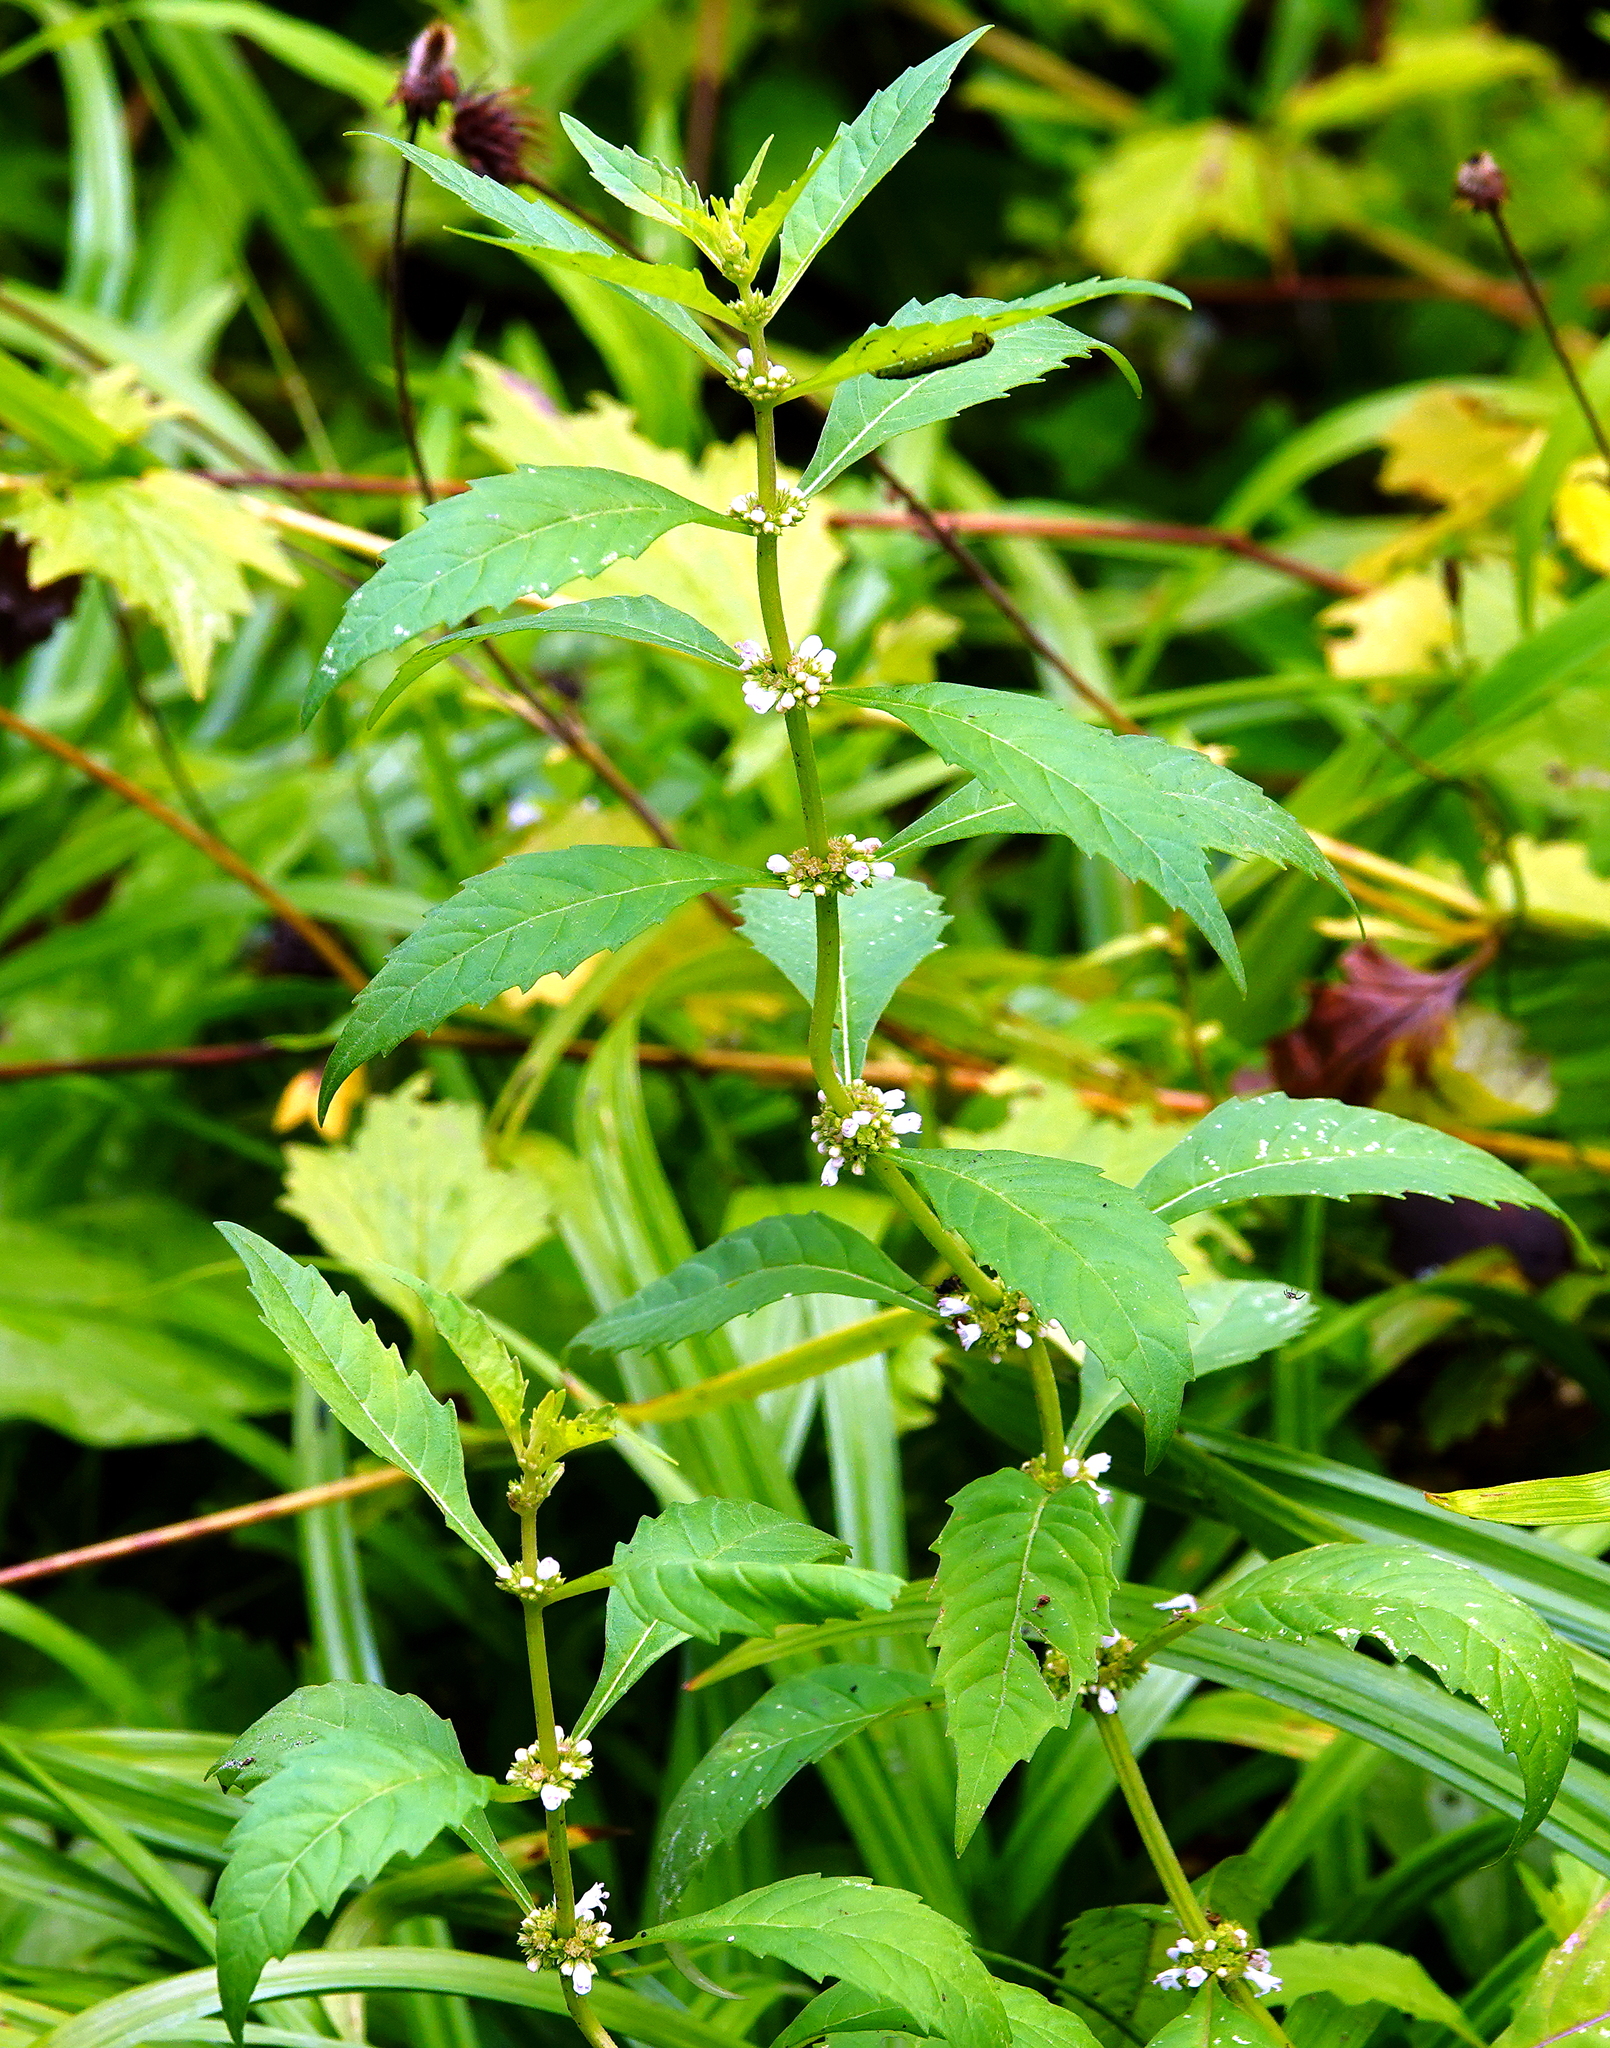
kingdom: Plantae
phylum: Tracheophyta
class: Magnoliopsida
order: Lamiales
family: Lamiaceae
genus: Lycopus
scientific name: Lycopus uniflorus
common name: Northern bugleweed
